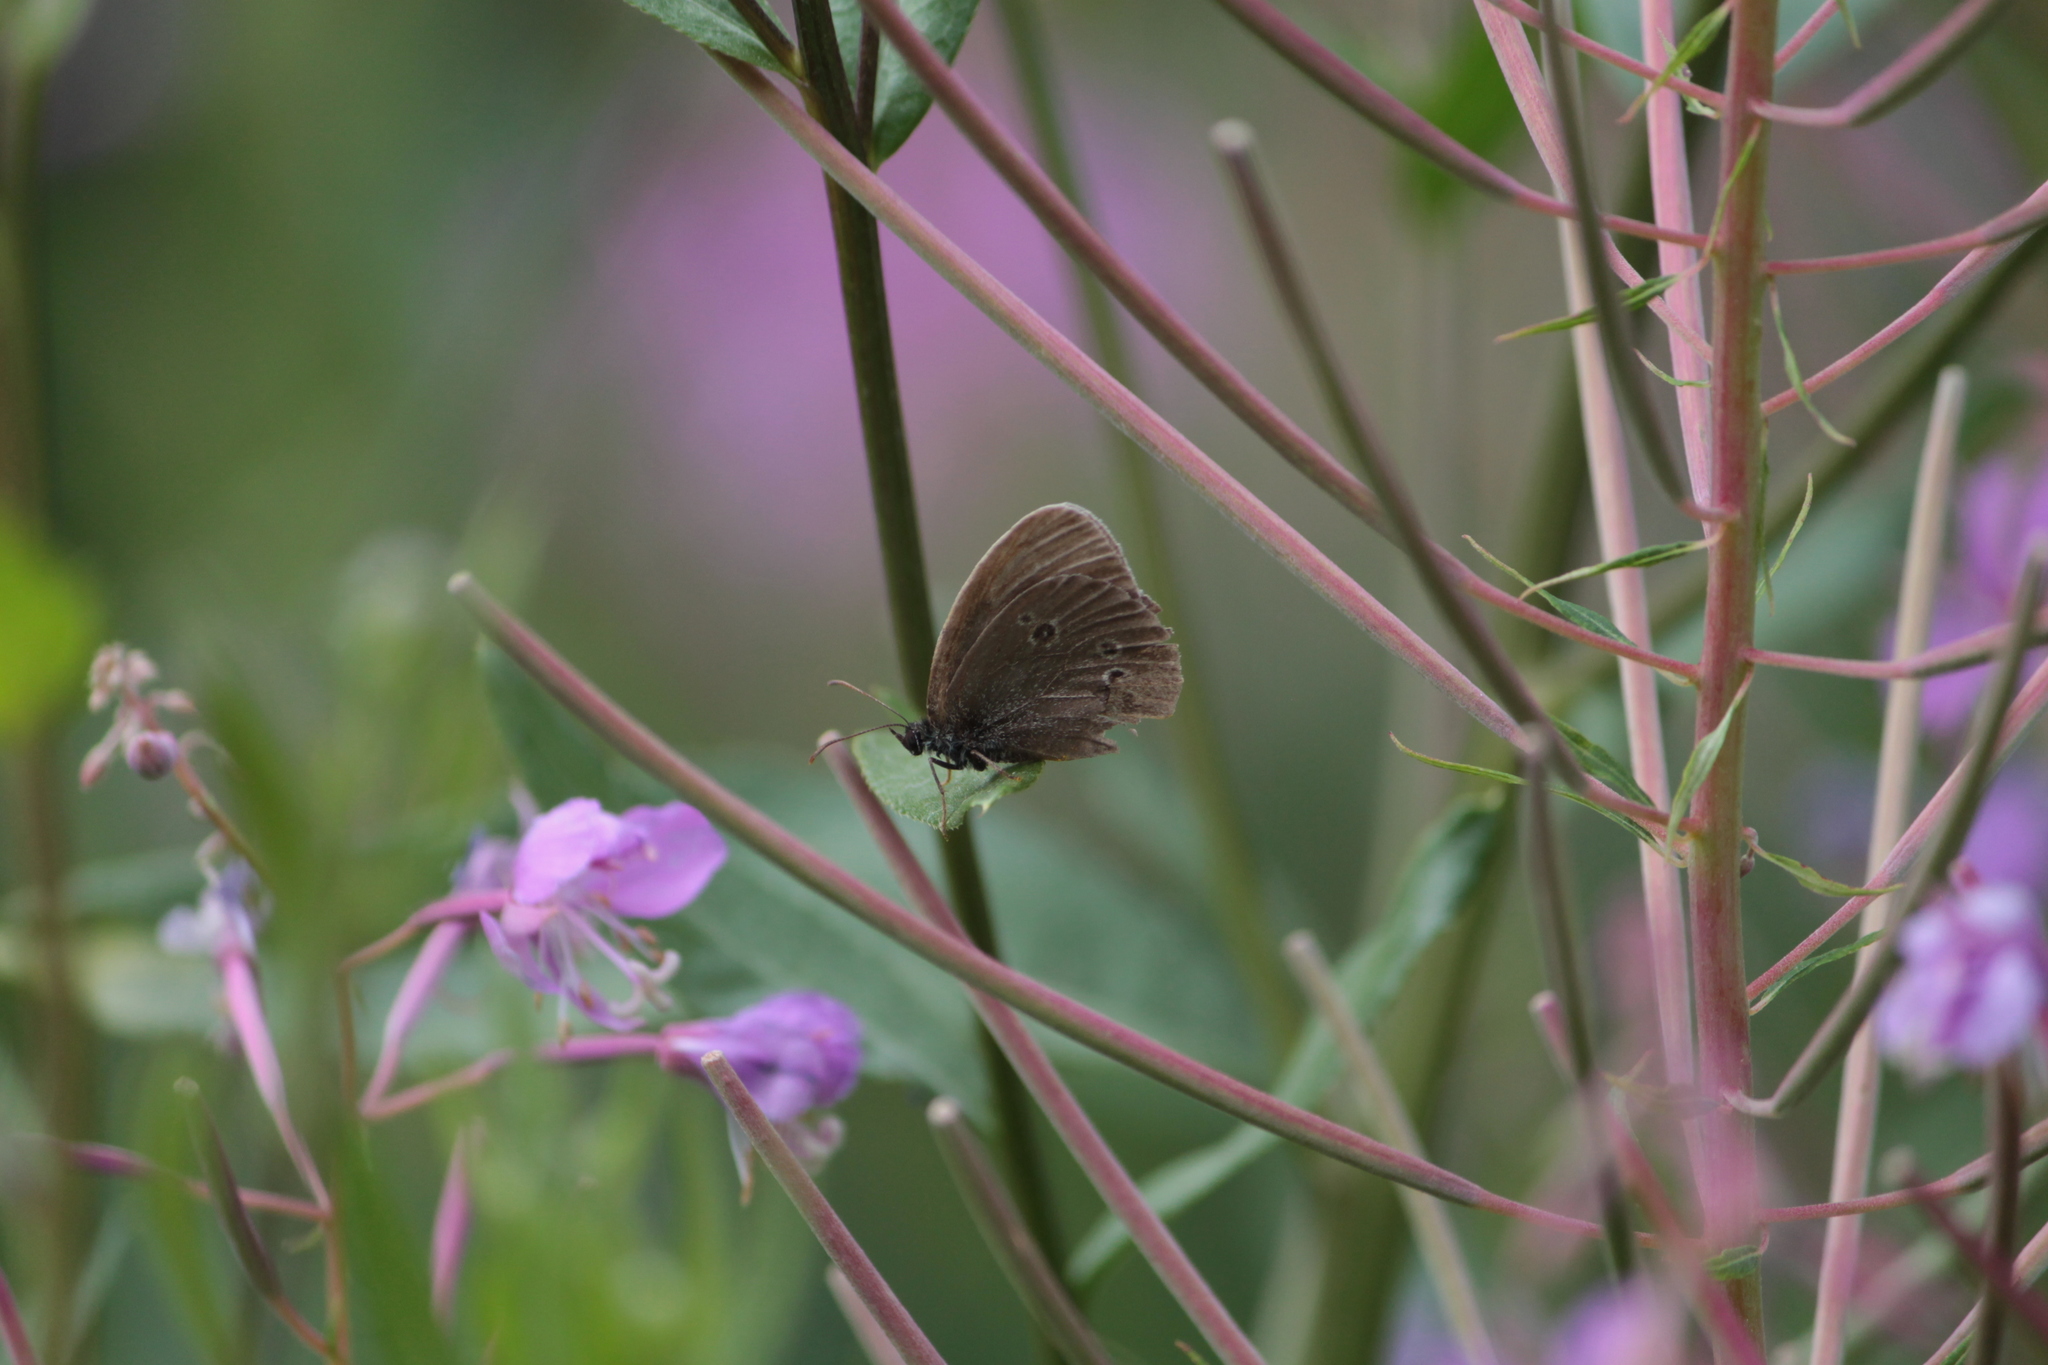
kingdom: Animalia
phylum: Arthropoda
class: Insecta
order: Lepidoptera
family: Nymphalidae
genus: Aphantopus
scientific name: Aphantopus hyperantus
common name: Ringlet
